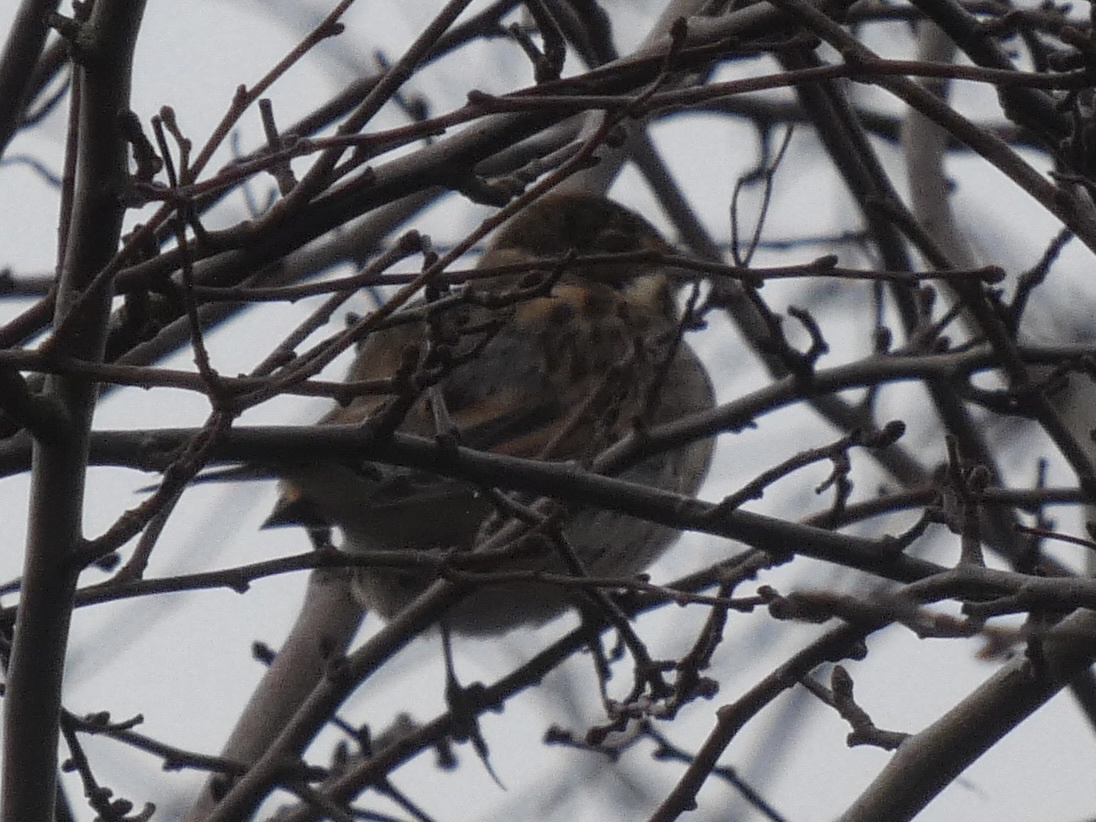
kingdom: Animalia
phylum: Chordata
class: Aves
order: Passeriformes
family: Emberizidae
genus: Emberiza
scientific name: Emberiza schoeniclus
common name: Reed bunting
